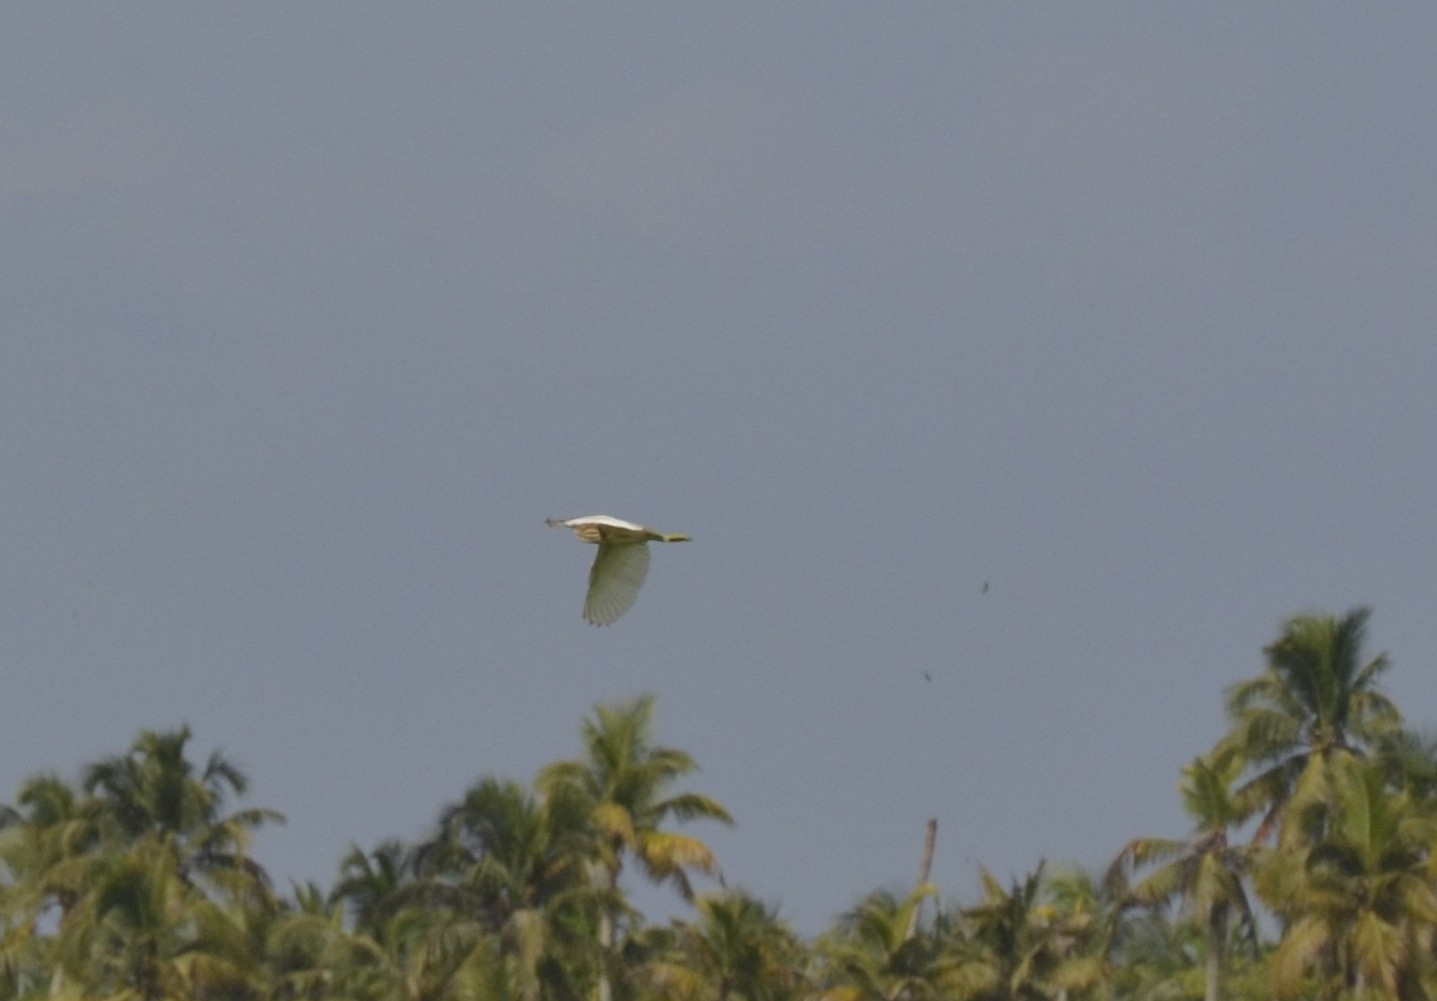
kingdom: Animalia
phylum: Chordata
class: Aves
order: Pelecaniformes
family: Ardeidae
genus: Ardeola
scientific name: Ardeola grayii
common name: Indian pond heron
